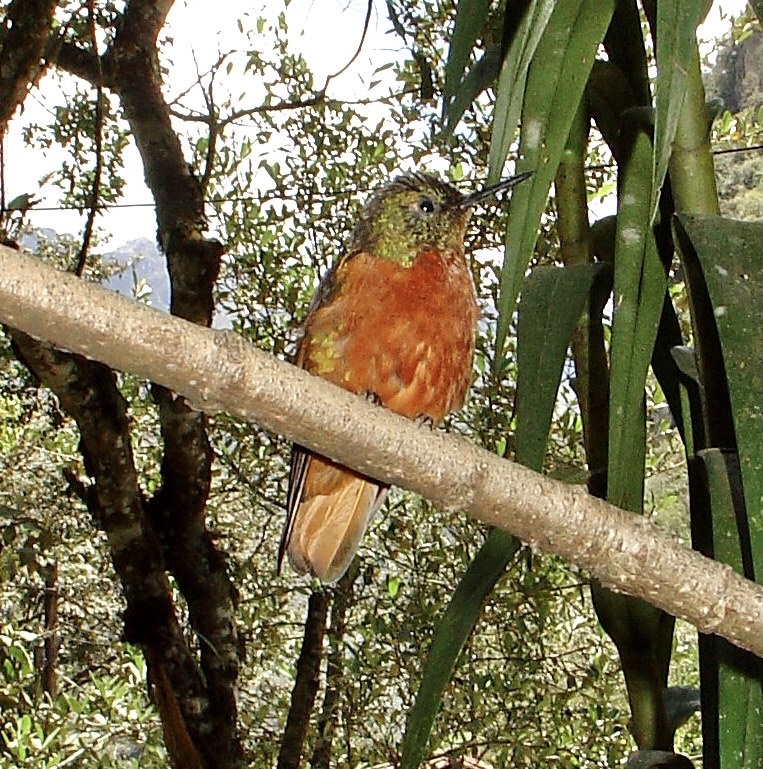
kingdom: Animalia
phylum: Chordata
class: Aves
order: Apodiformes
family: Trochilidae
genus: Boissonneaua
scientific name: Boissonneaua matthewsii
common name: Chestnut-breasted coronet
